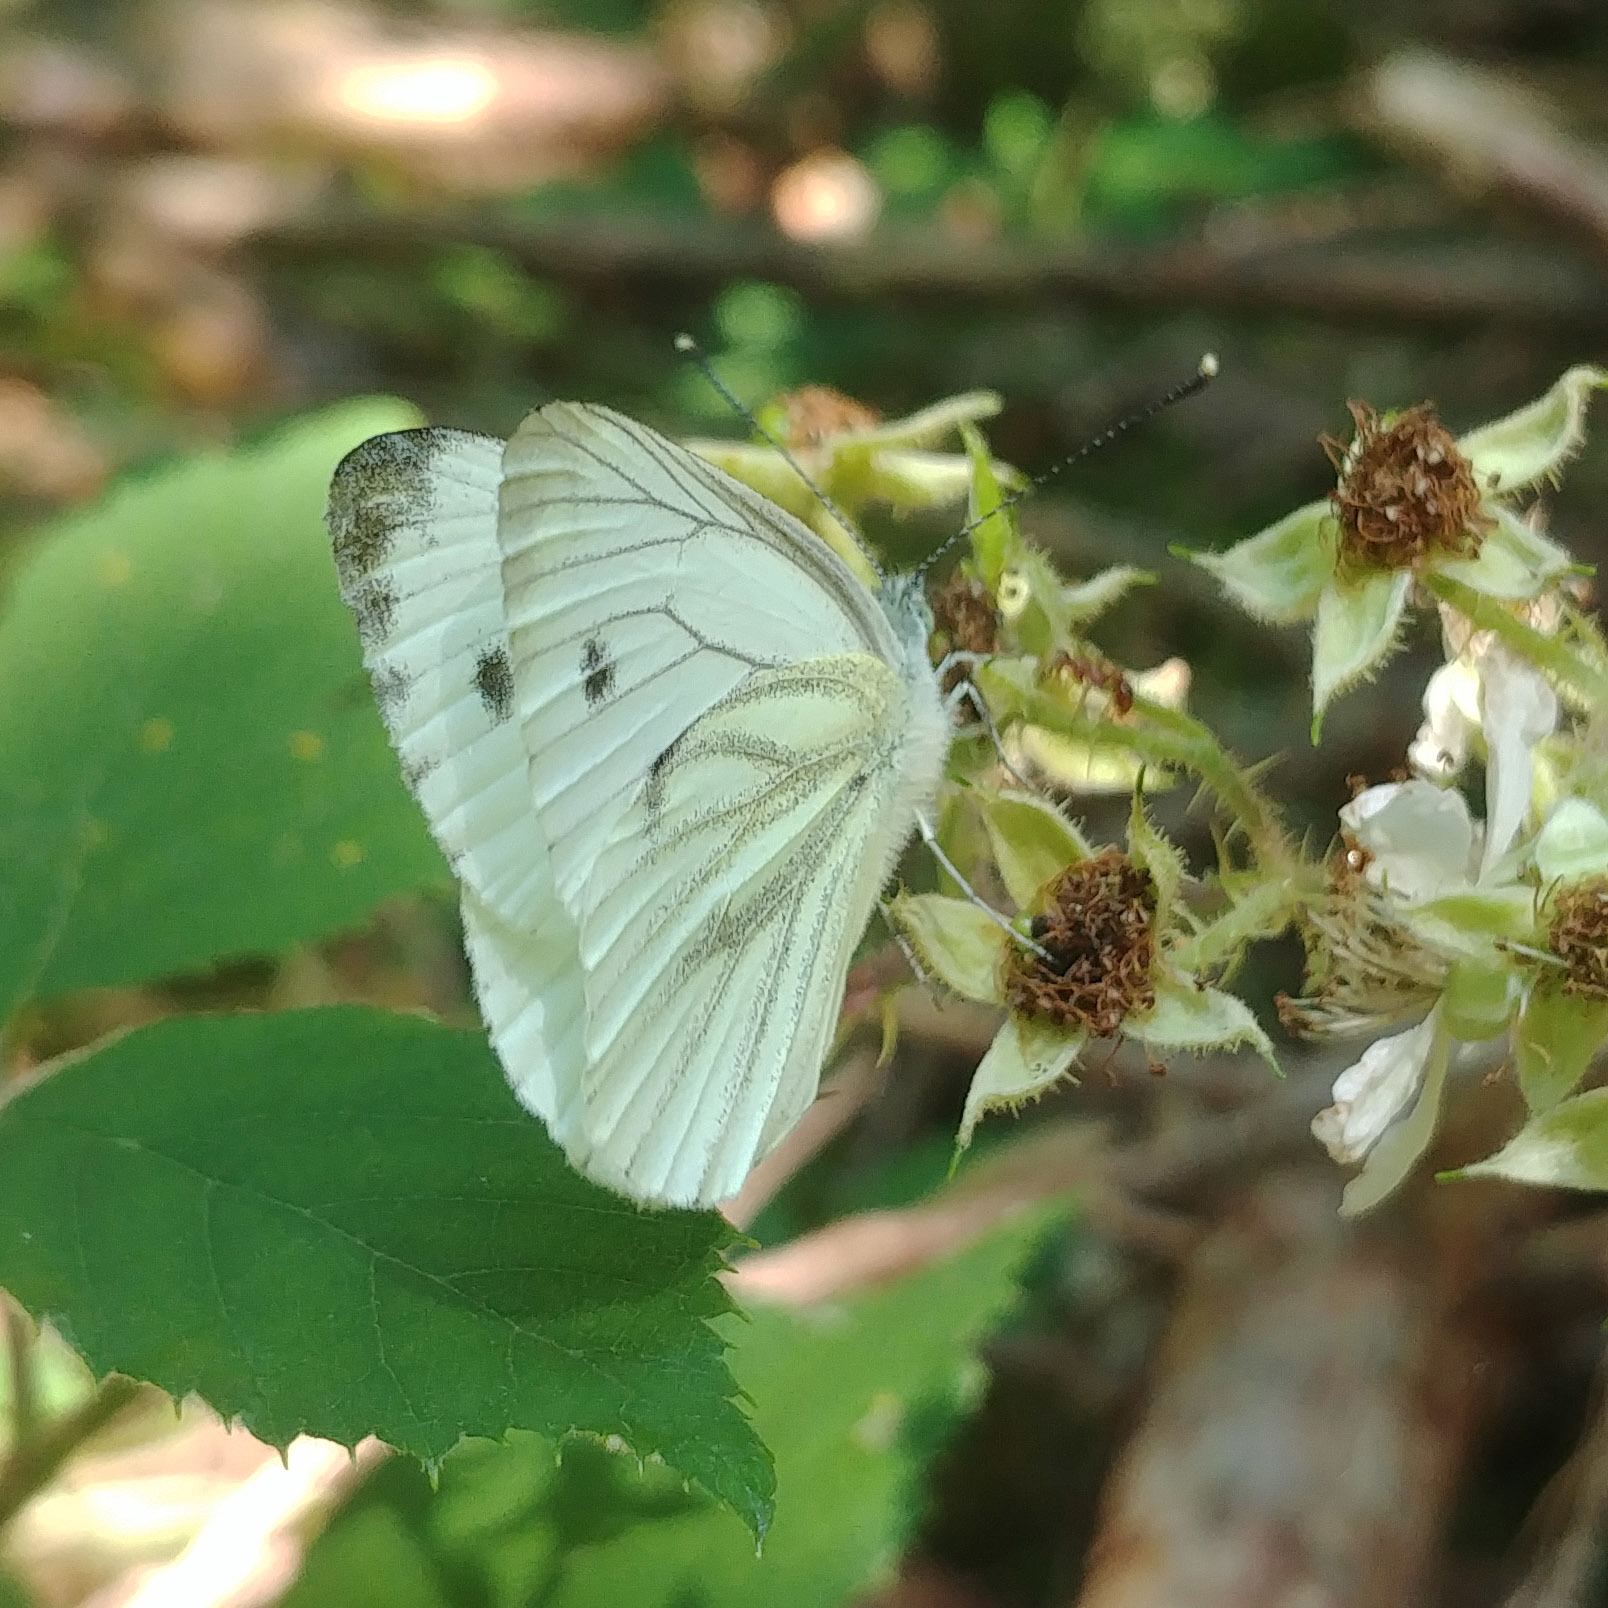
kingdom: Animalia
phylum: Arthropoda
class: Insecta
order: Lepidoptera
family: Pieridae
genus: Pieris
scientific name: Pieris napi
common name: Green-veined white
